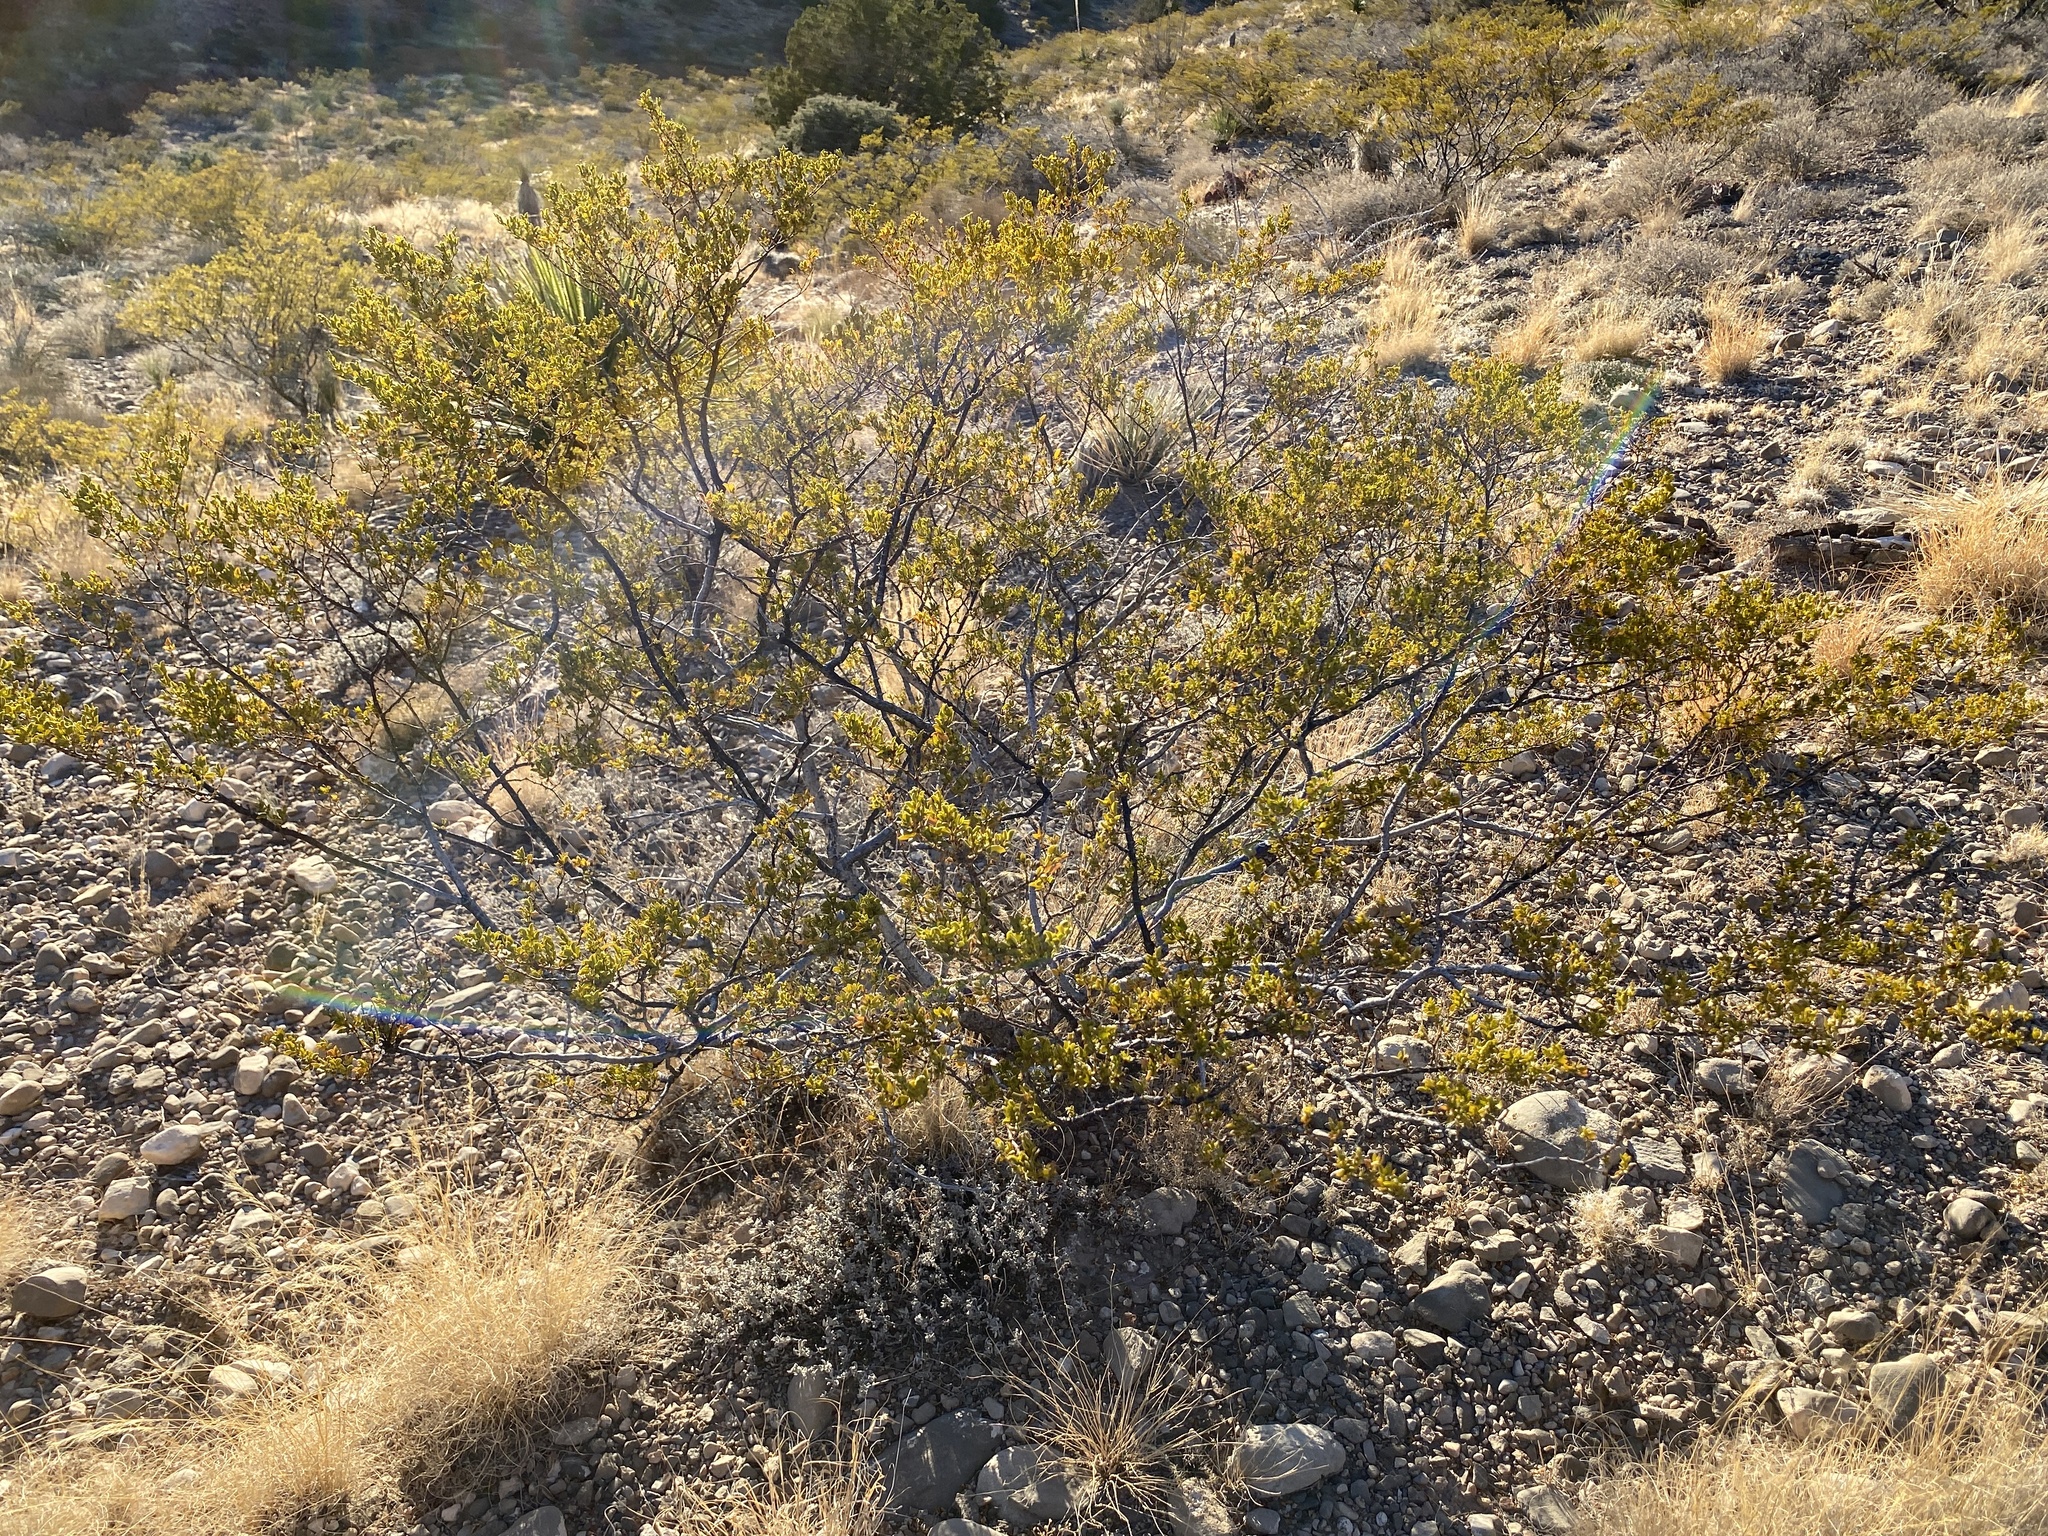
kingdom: Plantae
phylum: Tracheophyta
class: Magnoliopsida
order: Zygophyllales
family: Zygophyllaceae
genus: Larrea
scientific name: Larrea tridentata
